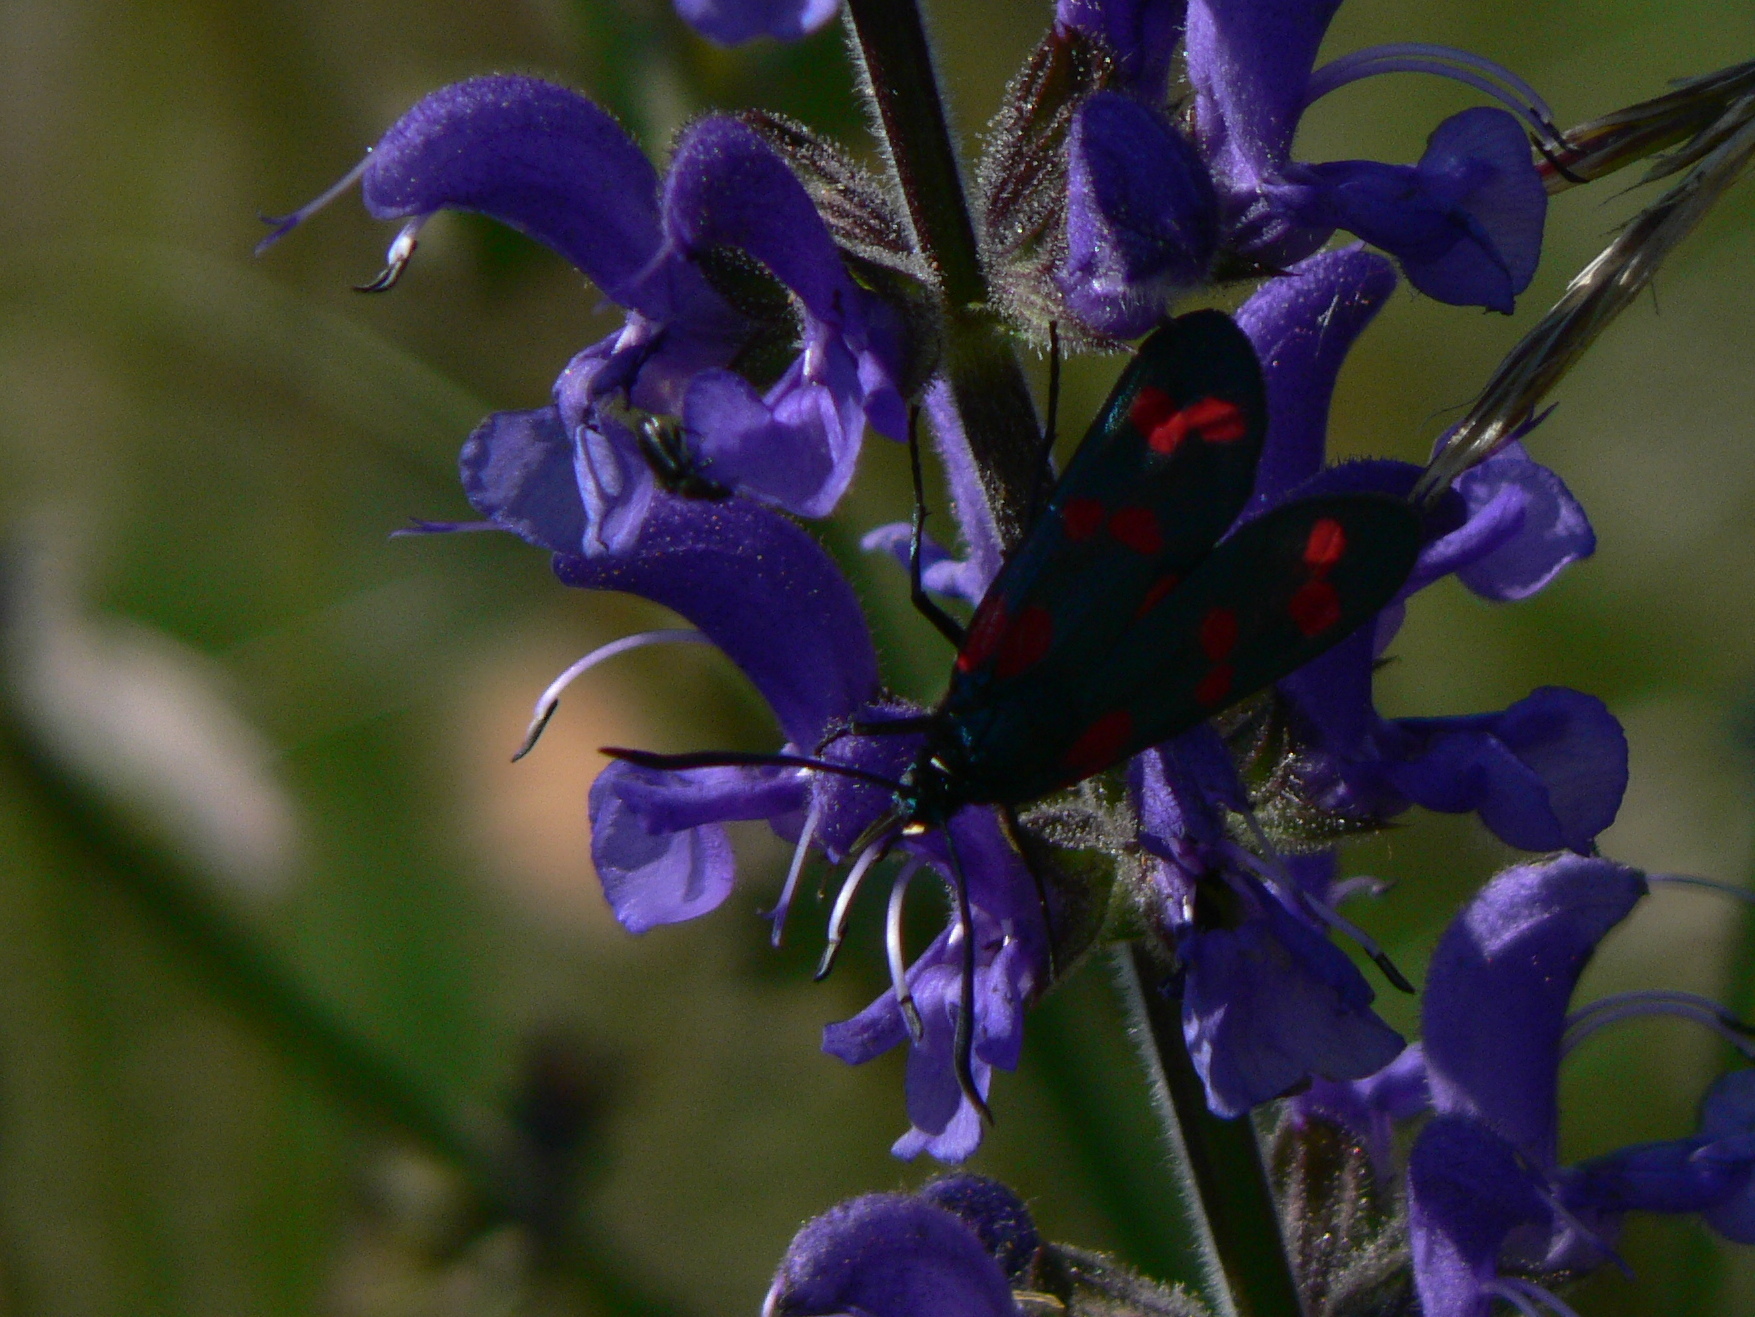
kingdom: Animalia
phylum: Arthropoda
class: Insecta
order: Lepidoptera
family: Zygaenidae
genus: Zygaena
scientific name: Zygaena filipendulae
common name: Six-spot burnet
